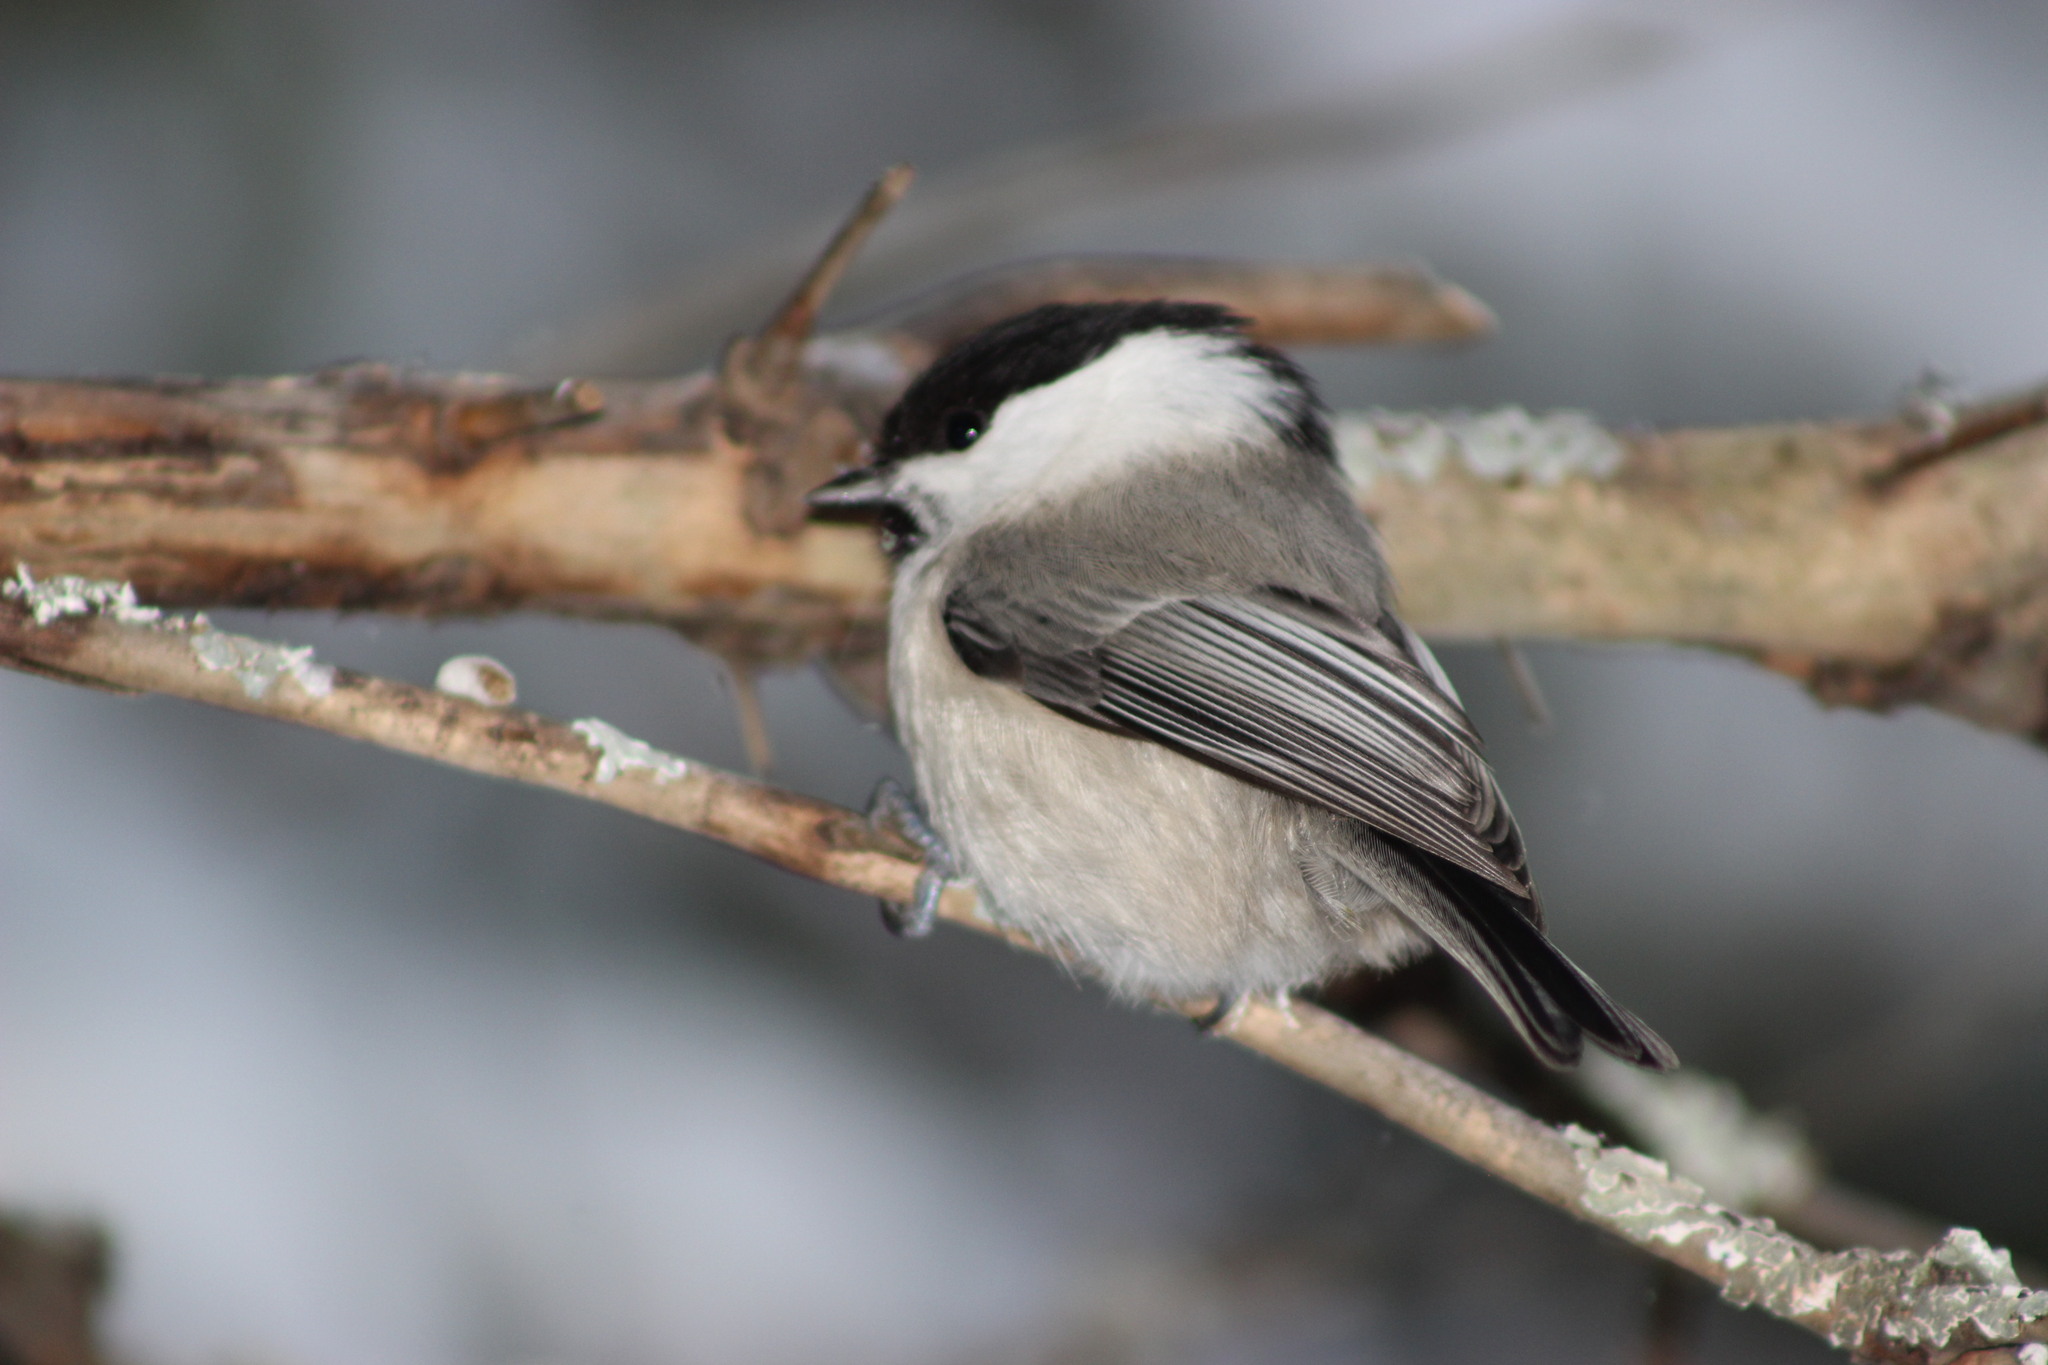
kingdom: Animalia
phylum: Chordata
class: Aves
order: Passeriformes
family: Paridae
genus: Poecile
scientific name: Poecile montanus
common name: Willow tit
